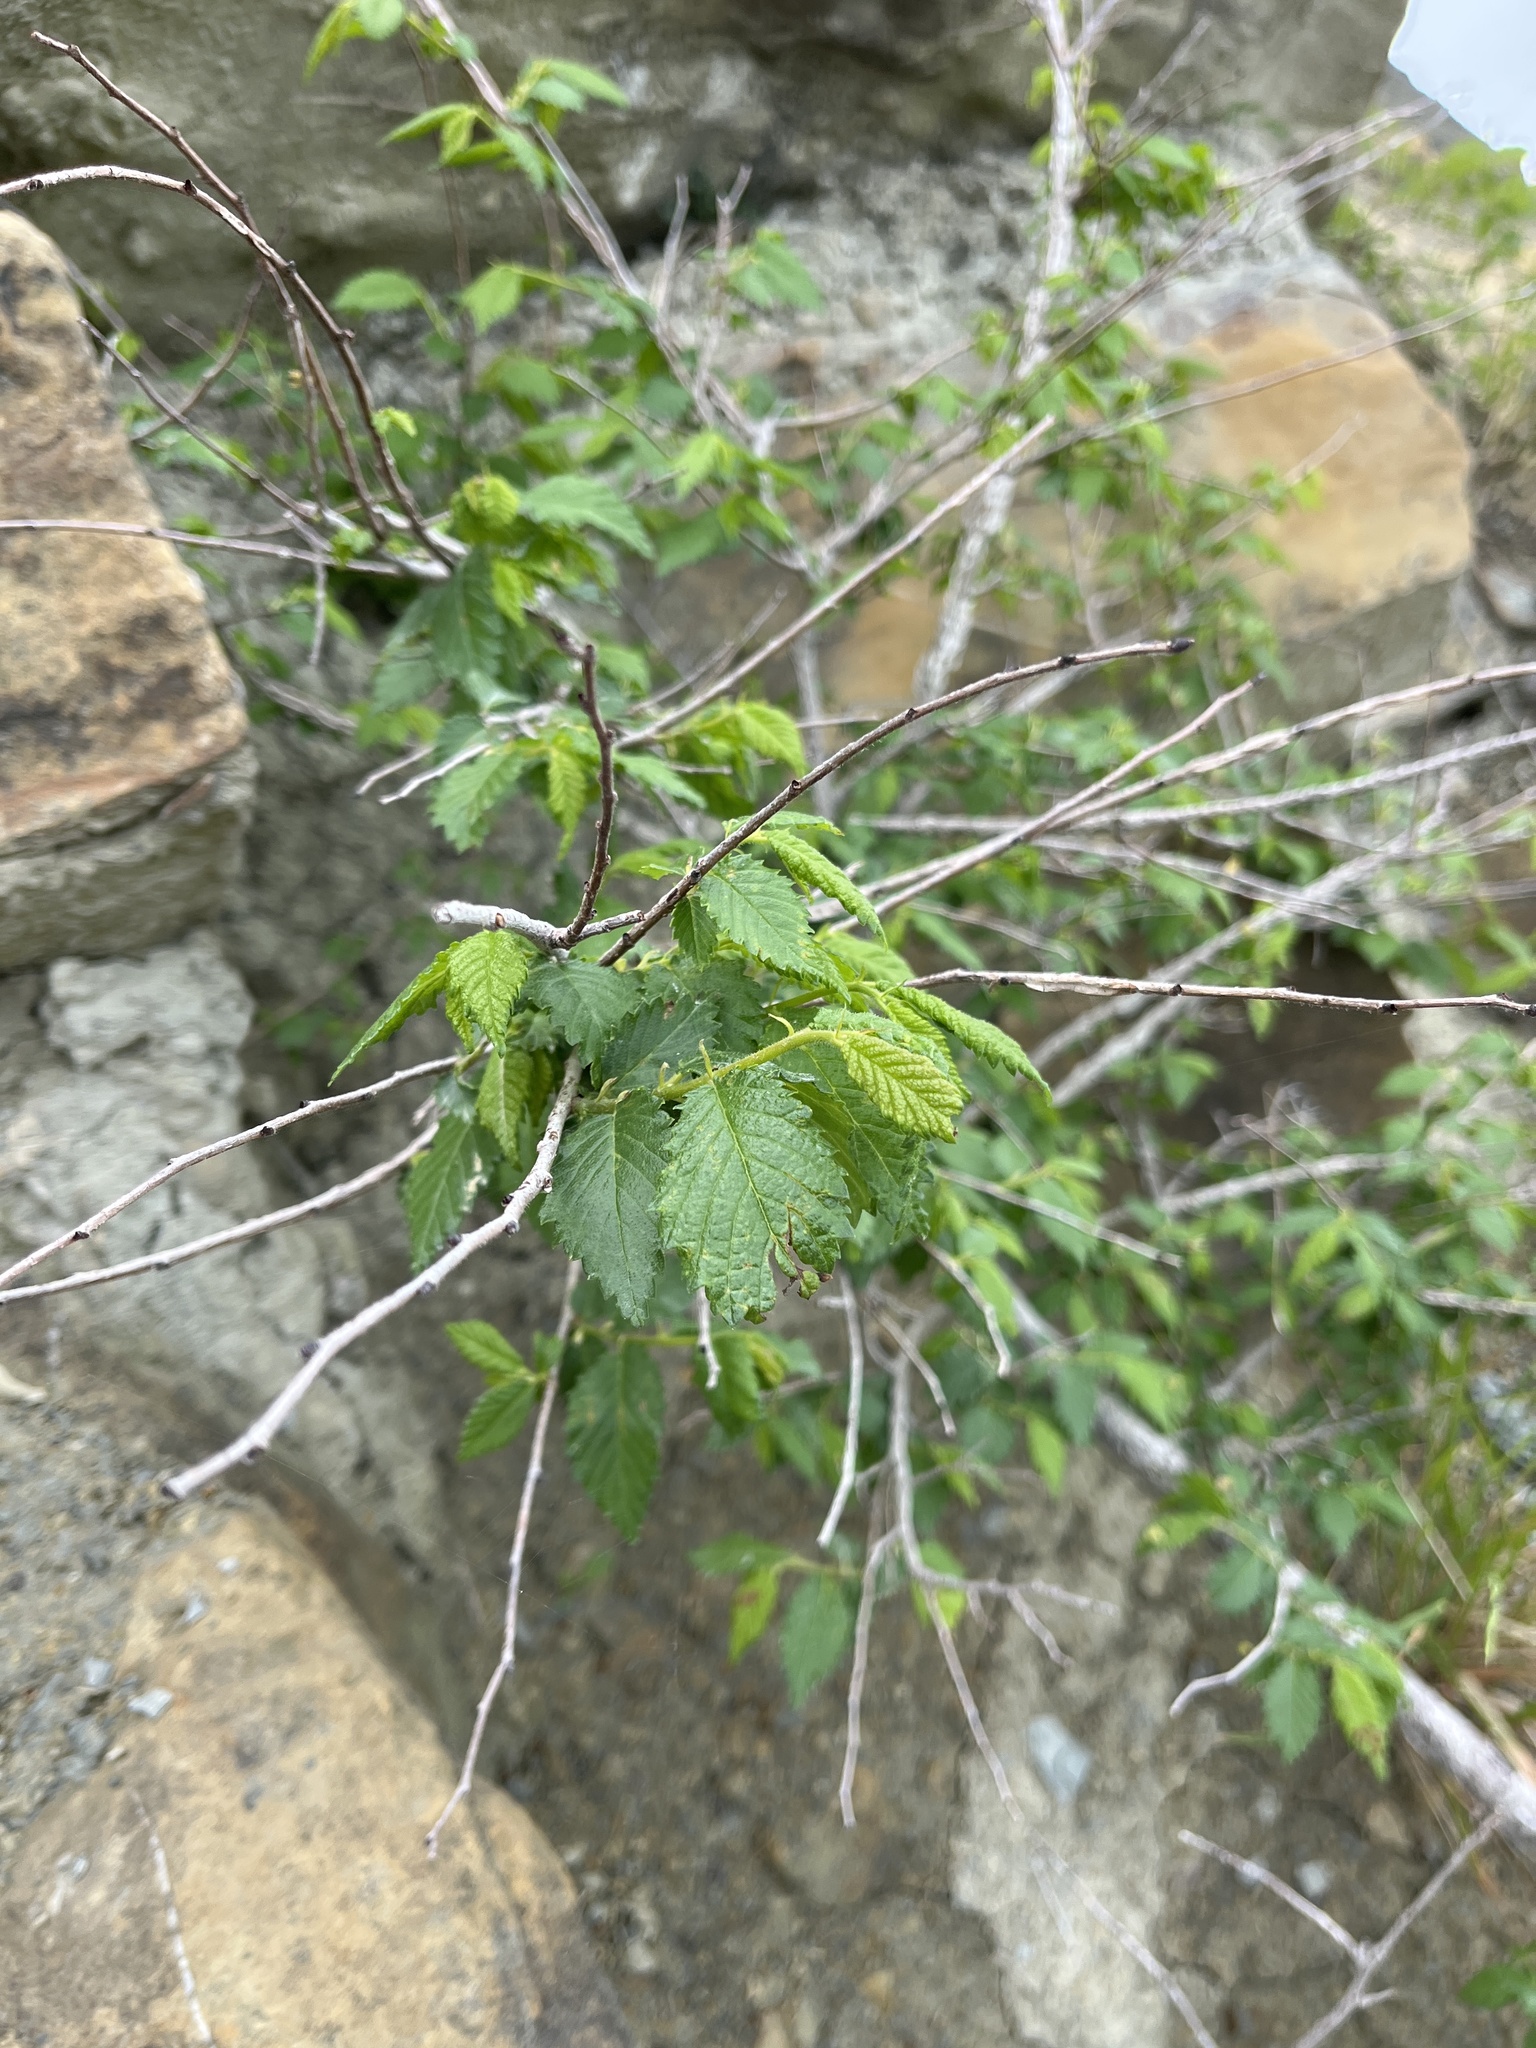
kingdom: Plantae
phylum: Tracheophyta
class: Magnoliopsida
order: Rosales
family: Ulmaceae
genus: Ulmus
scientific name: Ulmus minor
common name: Small-leaved elm
